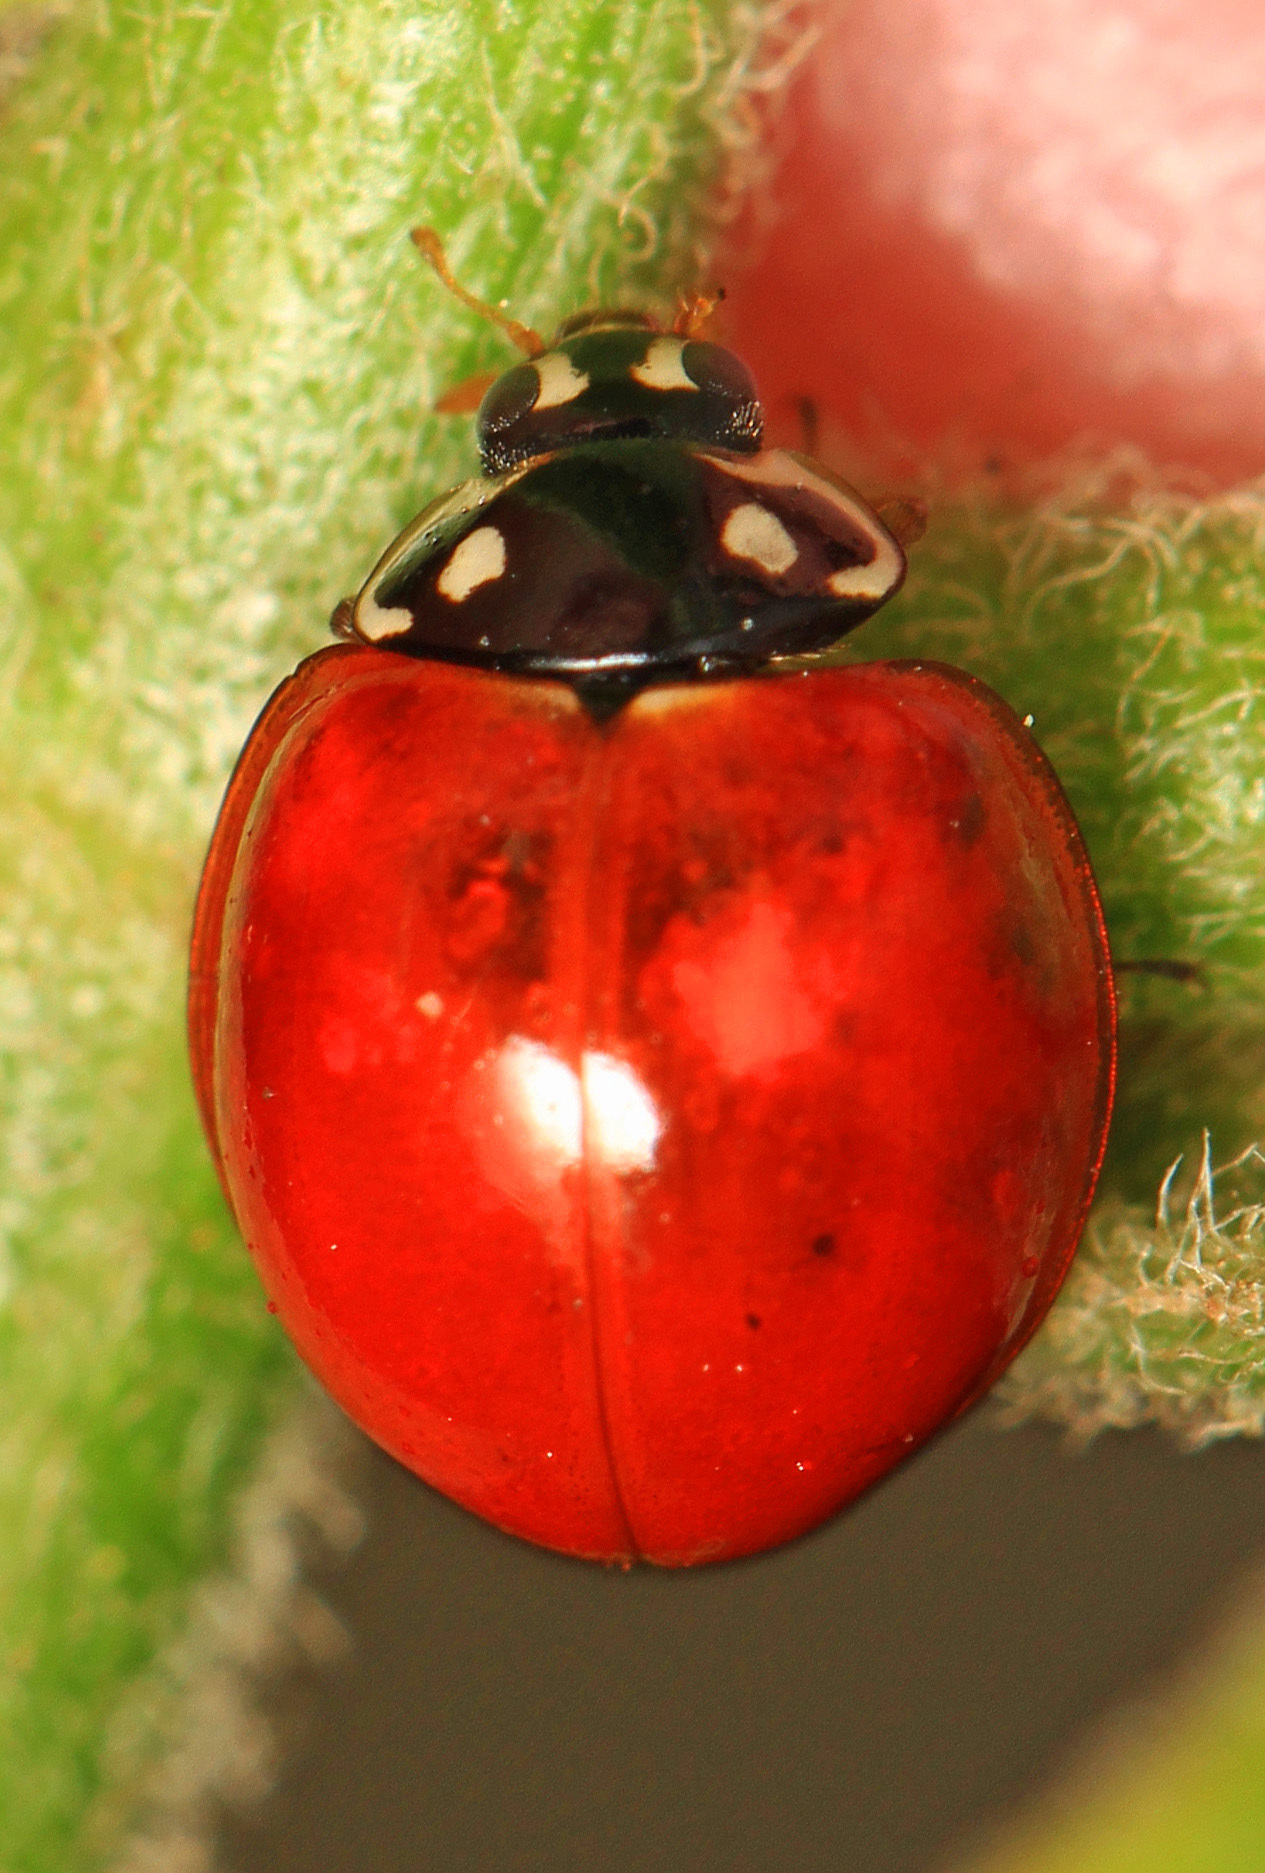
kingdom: Animalia
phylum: Arthropoda
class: Insecta
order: Coleoptera
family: Coccinellidae
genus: Cycloneda
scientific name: Cycloneda sanguinea
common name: Ladybird beetle
